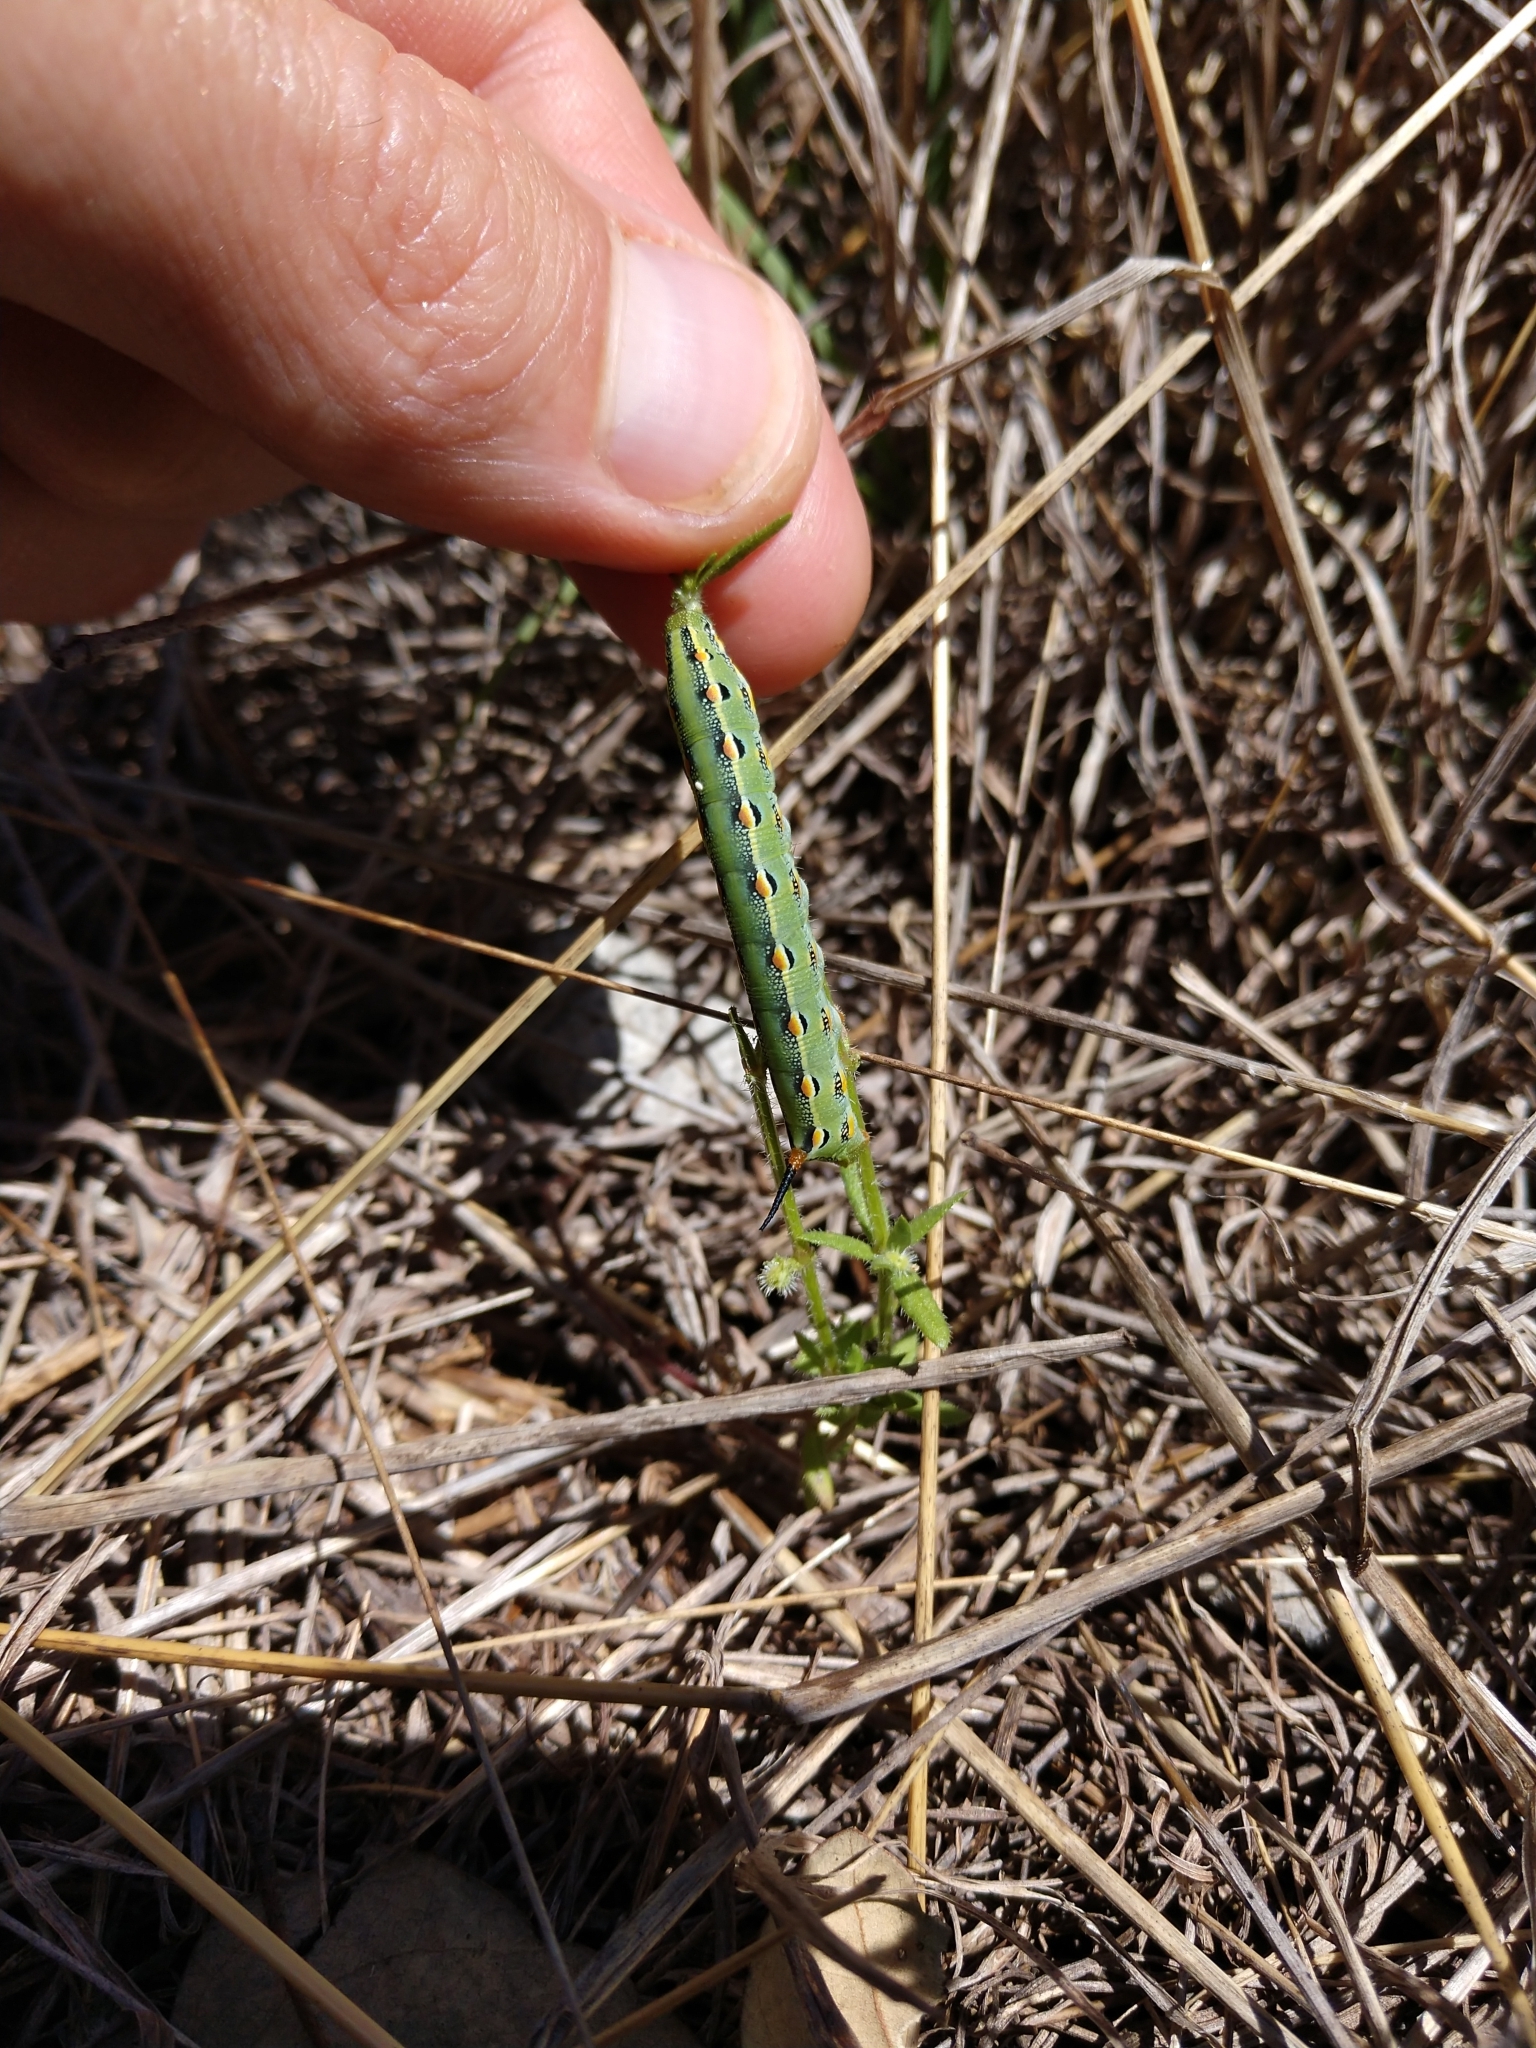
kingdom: Animalia
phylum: Arthropoda
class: Insecta
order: Lepidoptera
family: Sphingidae
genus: Hyles
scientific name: Hyles lineata
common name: White-lined sphinx
